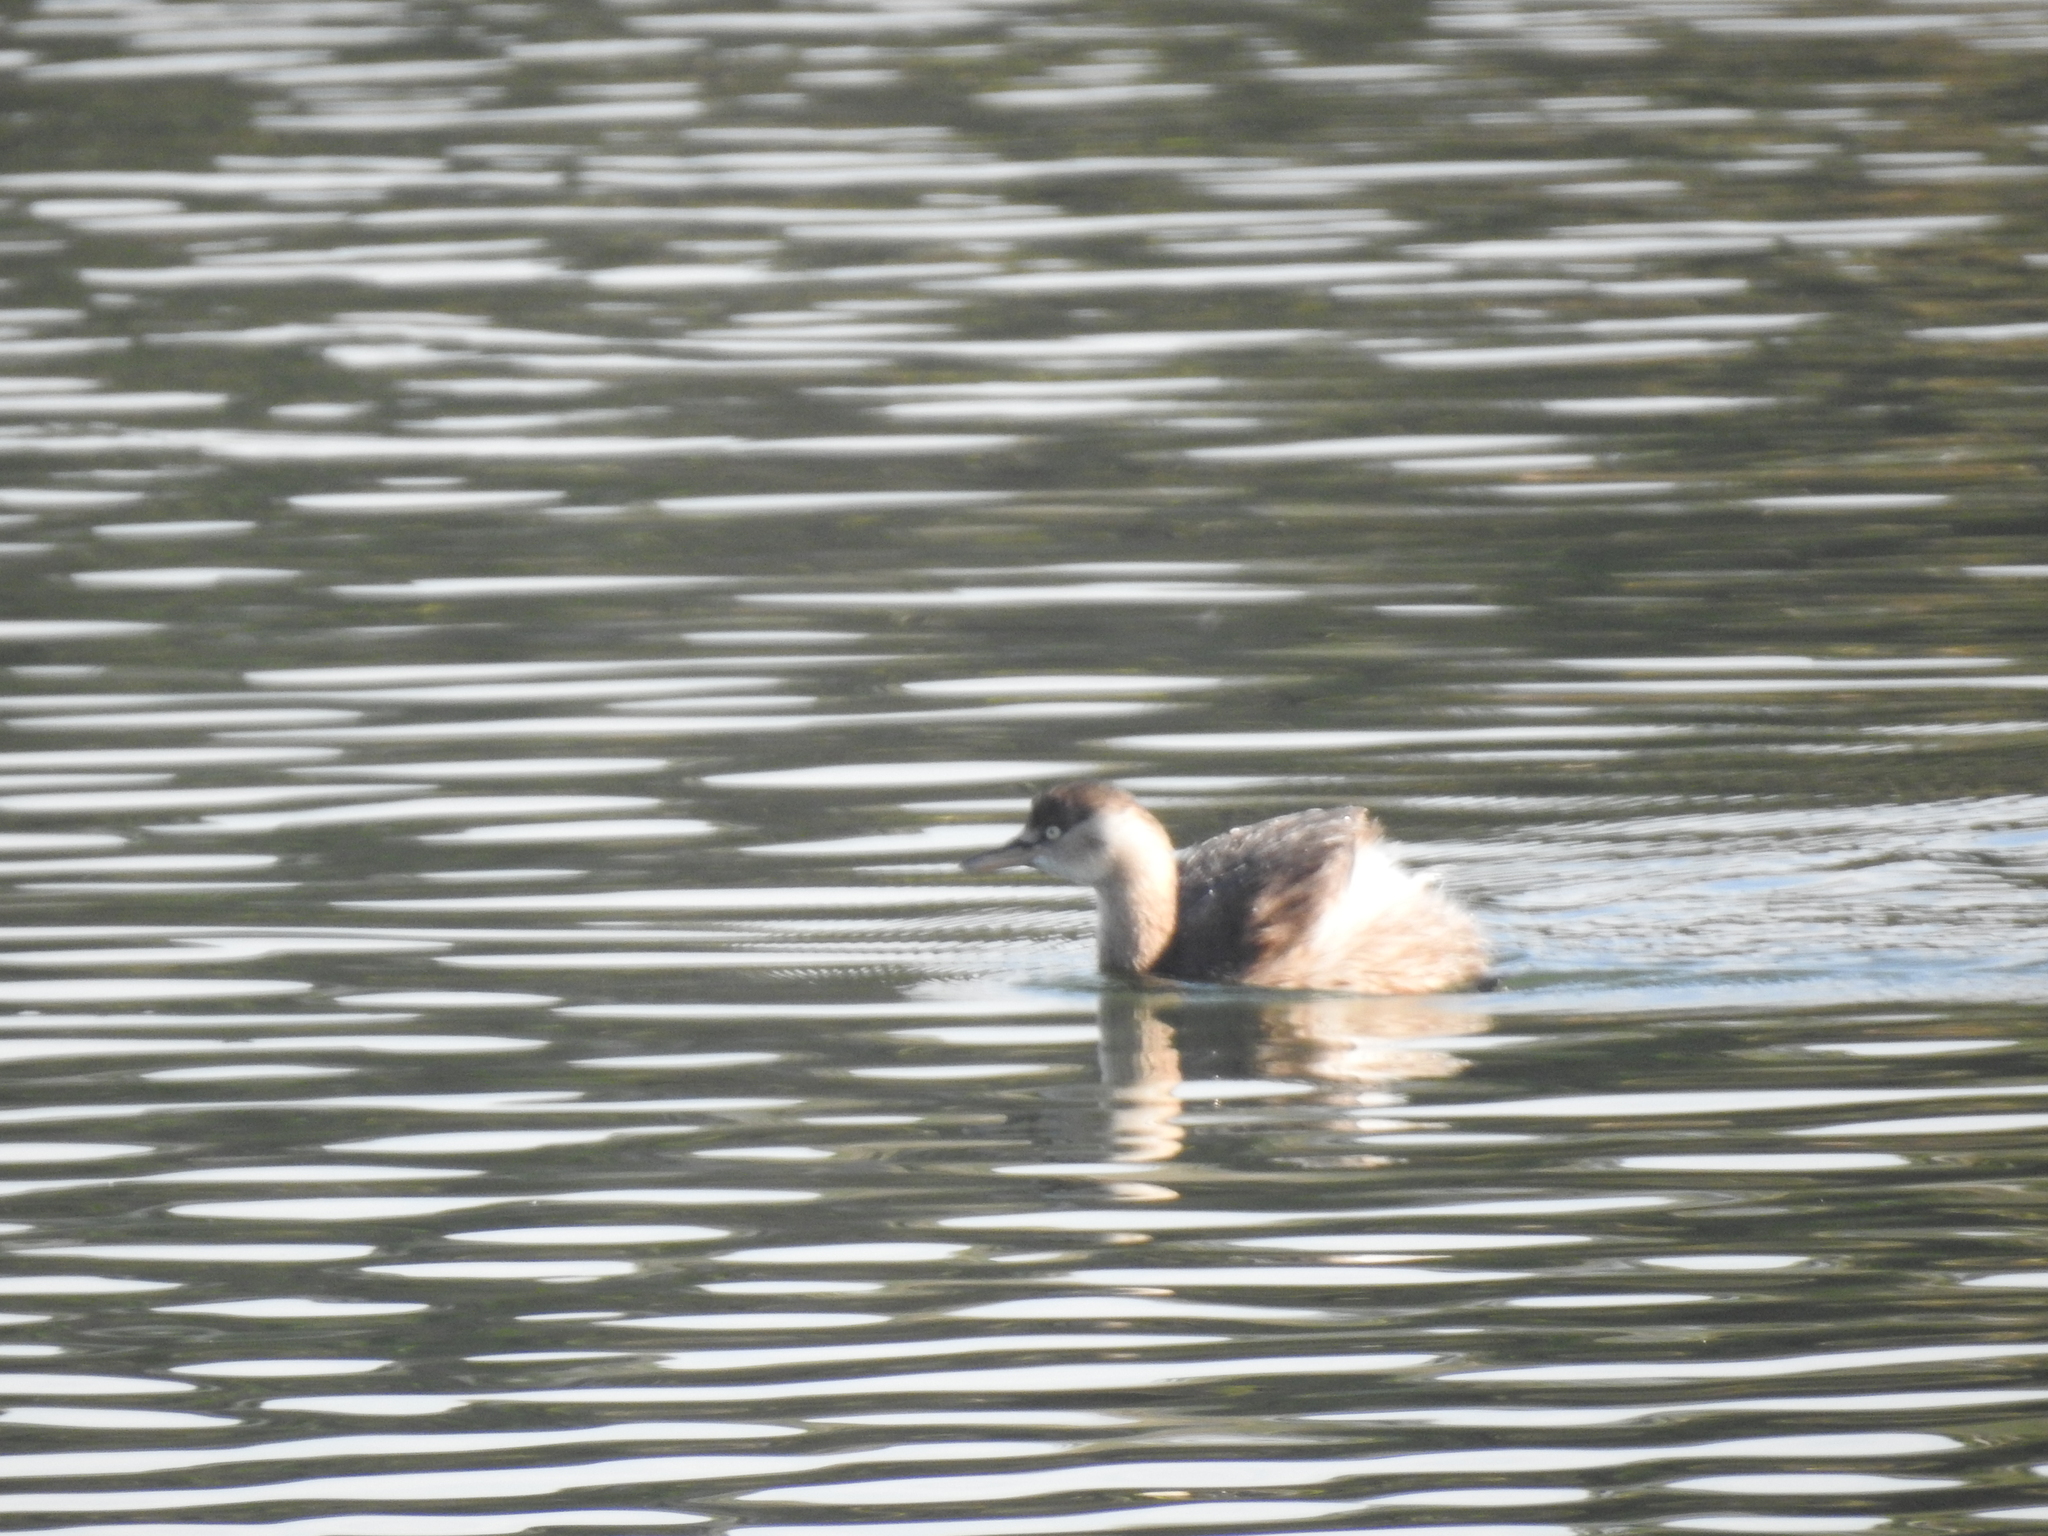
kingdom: Animalia
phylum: Chordata
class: Aves
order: Podicipediformes
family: Podicipedidae
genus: Tachybaptus
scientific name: Tachybaptus ruficollis
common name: Little grebe
